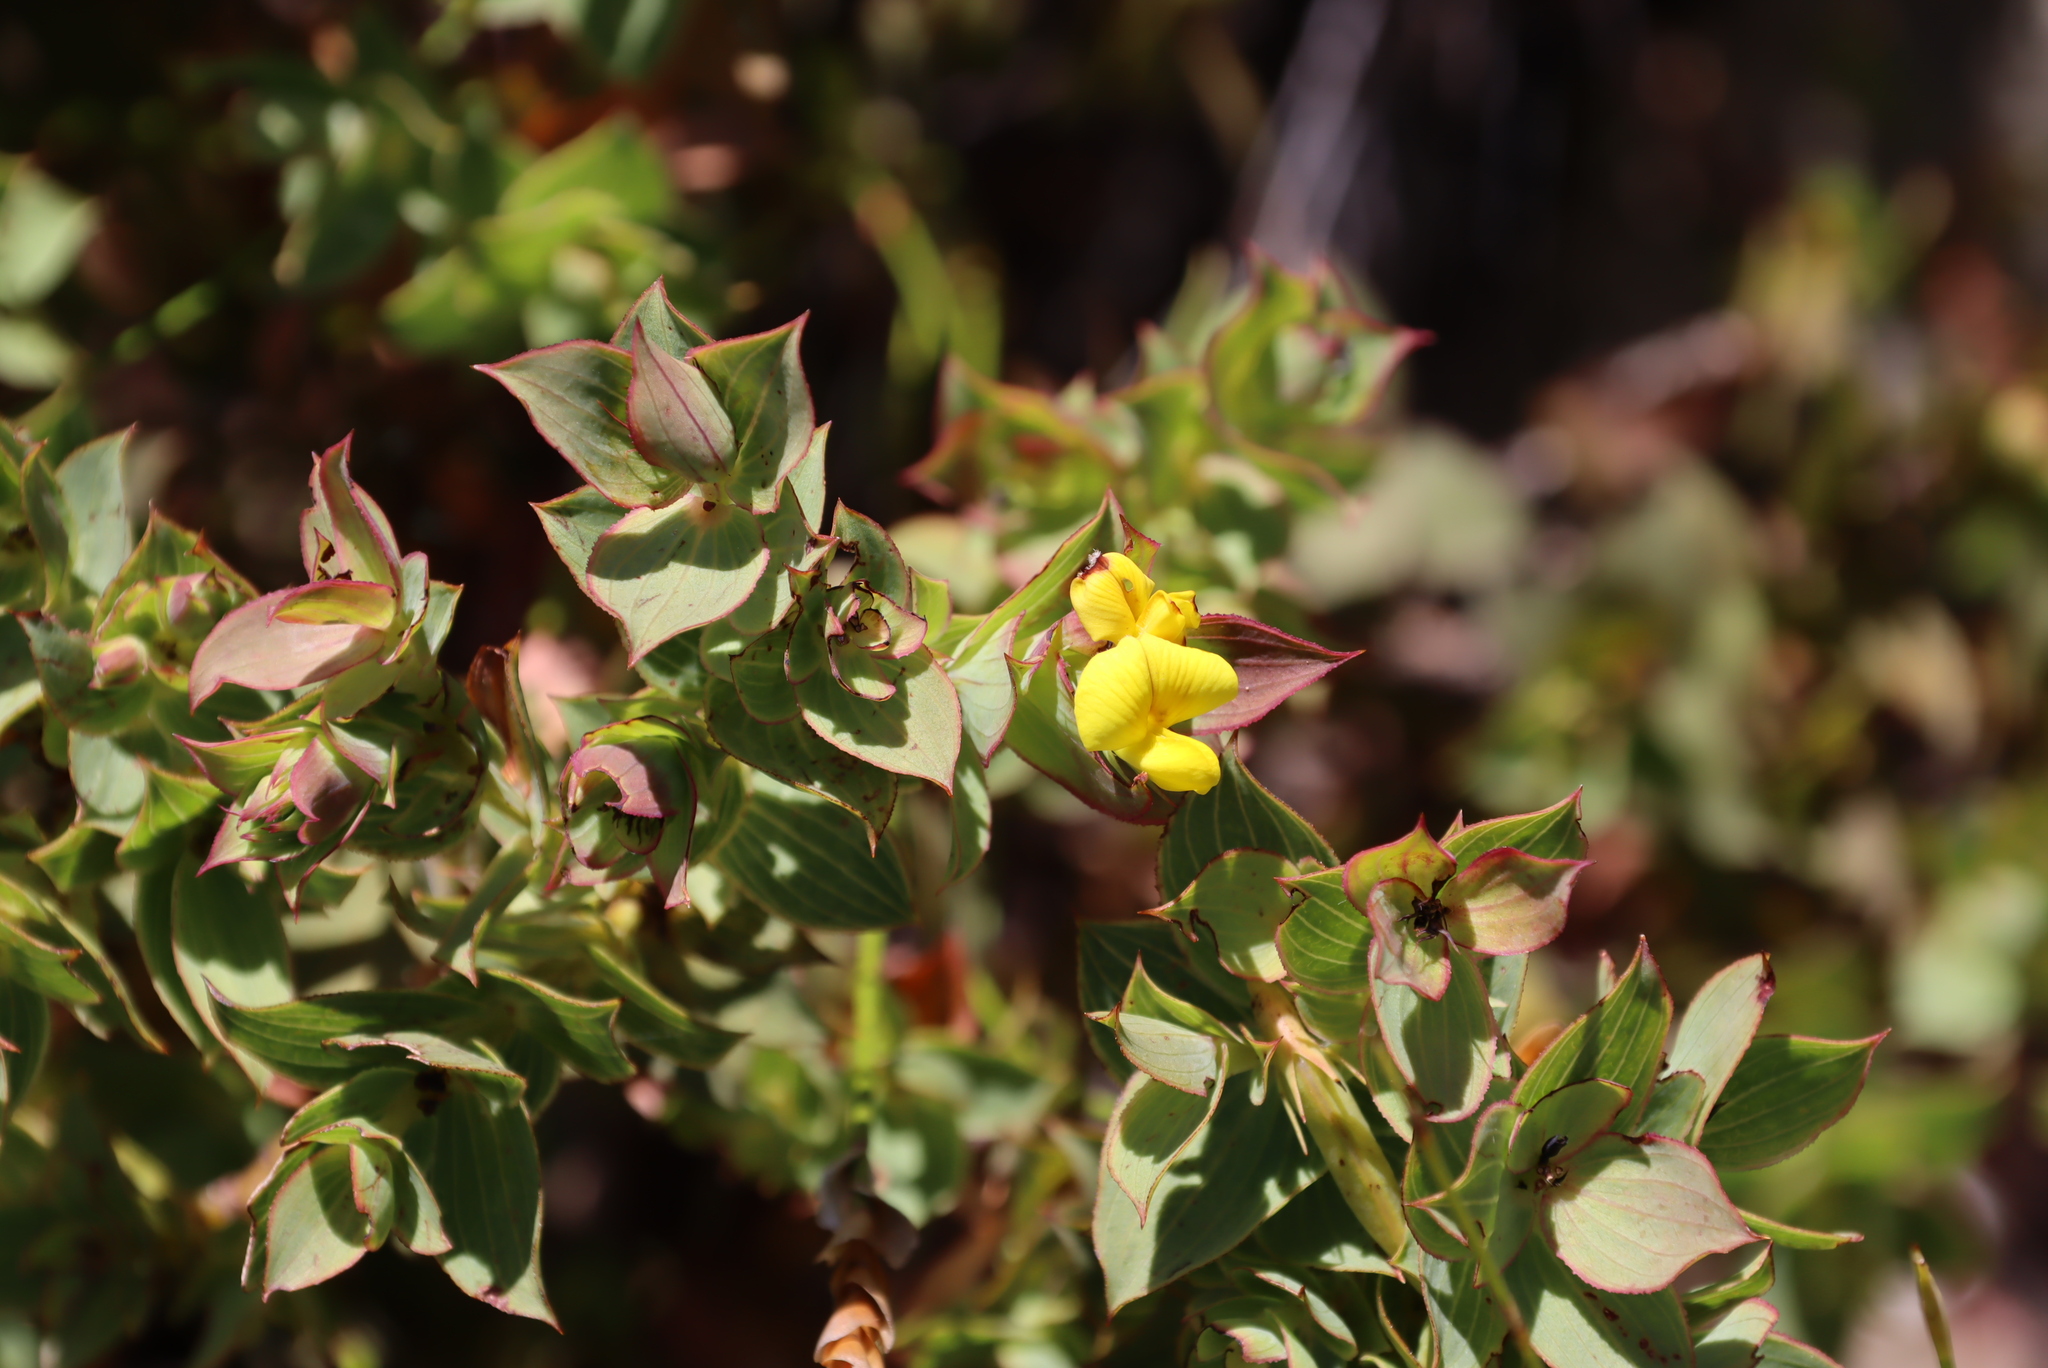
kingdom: Plantae
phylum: Tracheophyta
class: Magnoliopsida
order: Fabales
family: Fabaceae
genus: Aspalathus
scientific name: Aspalathus crenata
